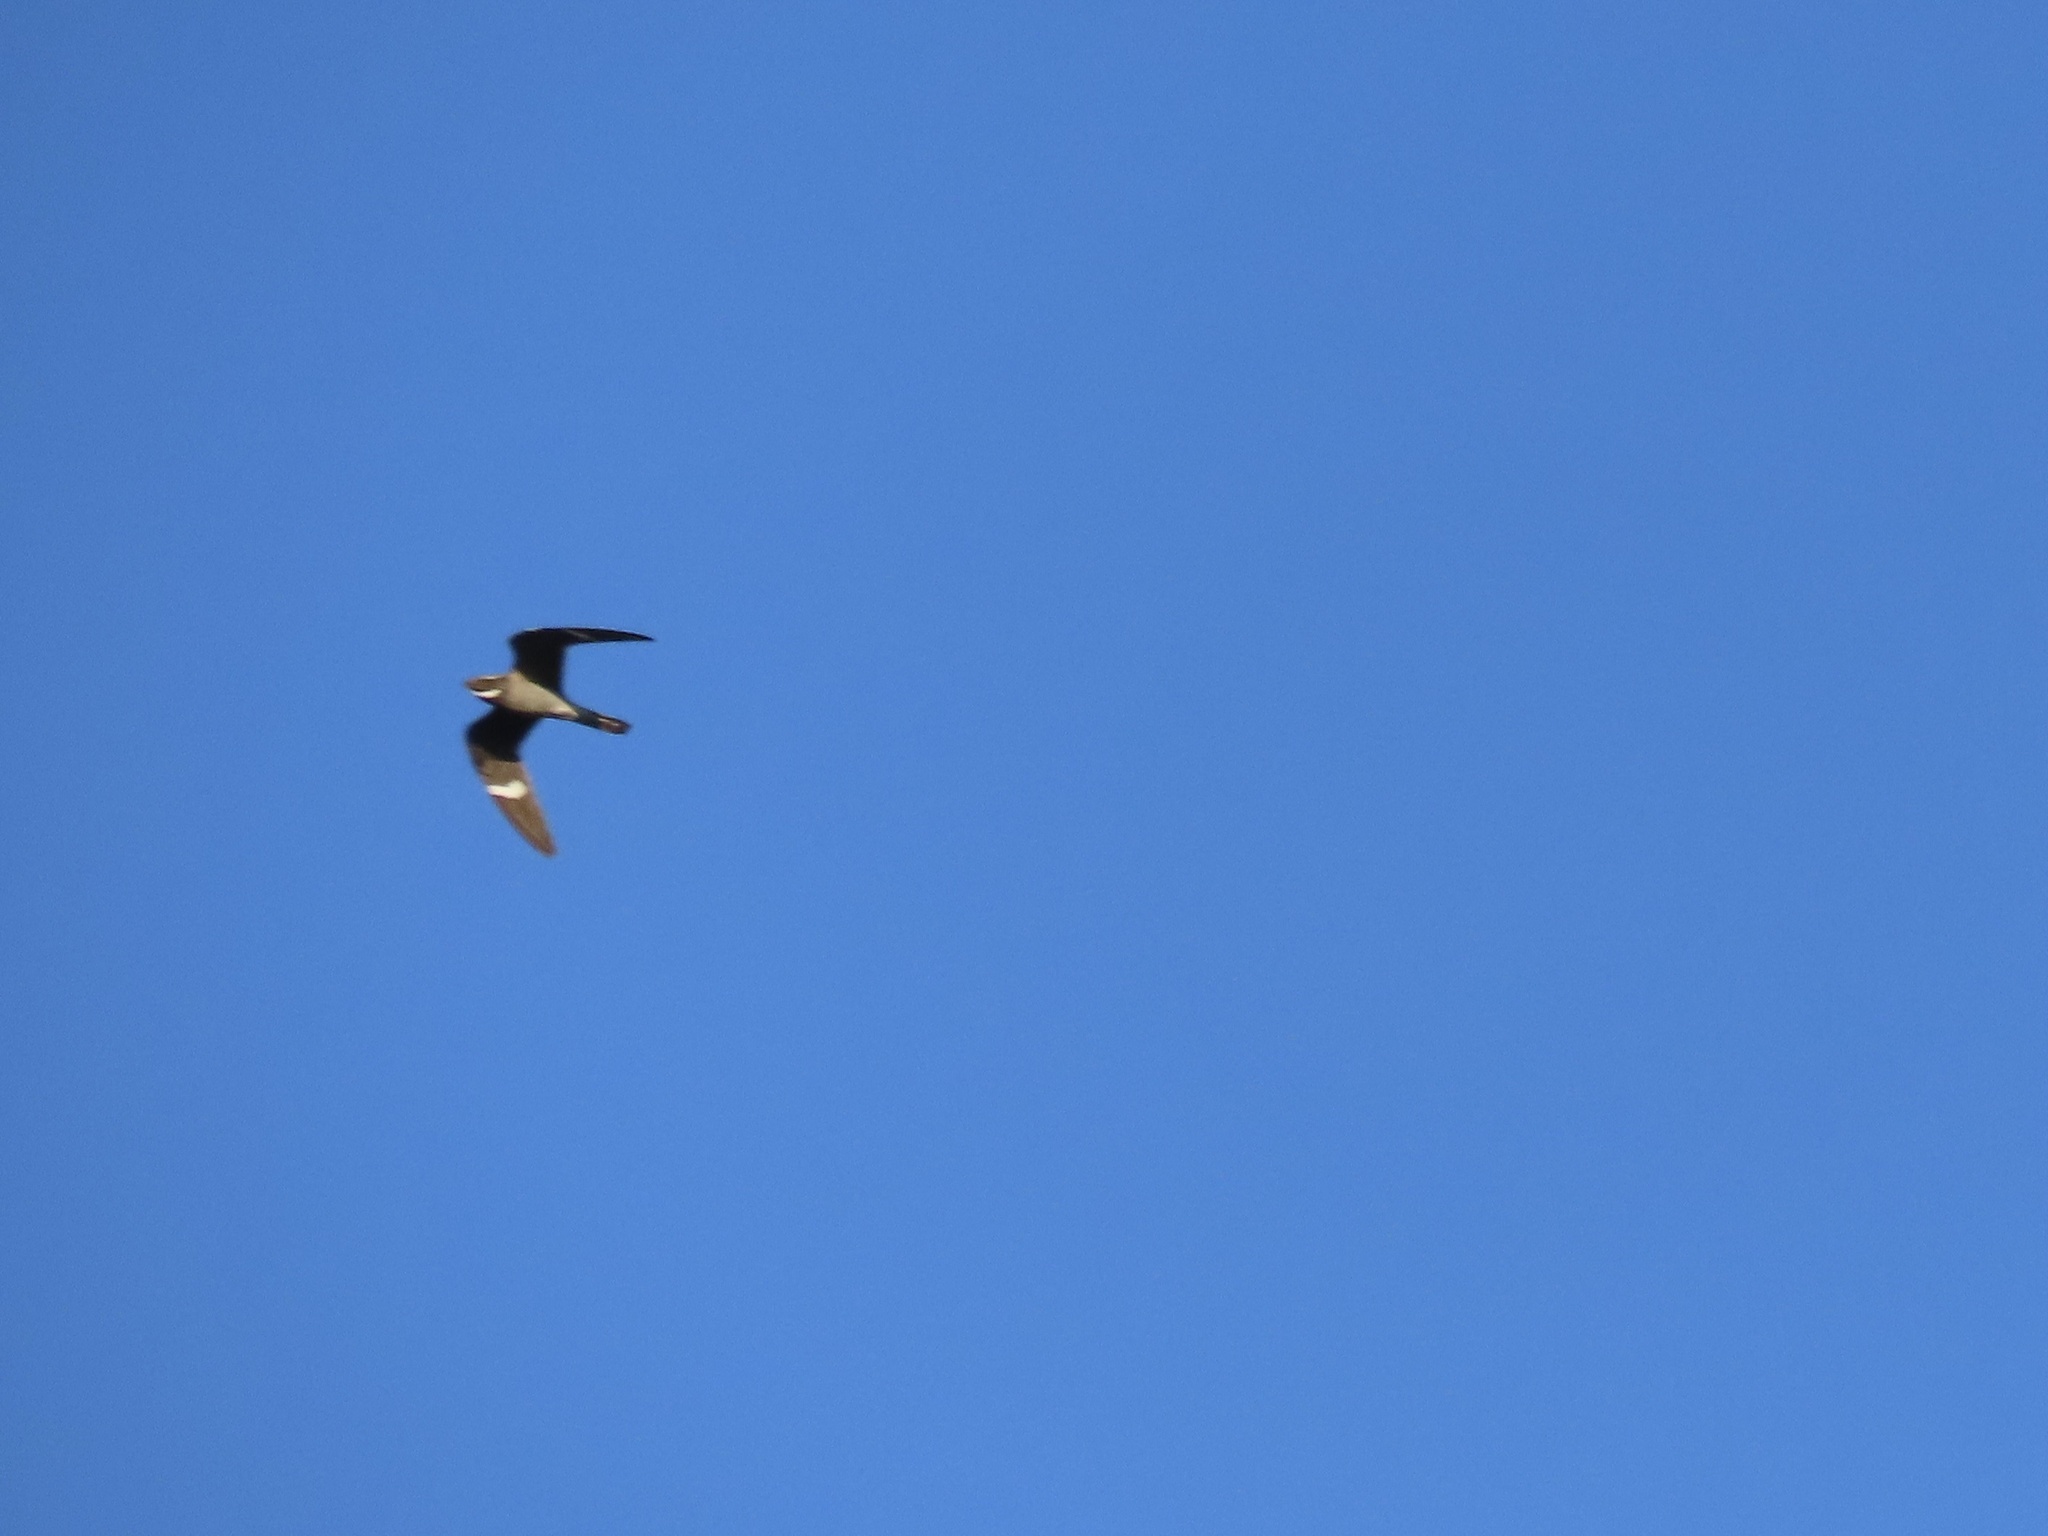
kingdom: Animalia
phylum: Chordata
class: Aves
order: Caprimulgiformes
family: Caprimulgidae
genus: Chordeiles
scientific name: Chordeiles minor
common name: Common nighthawk
